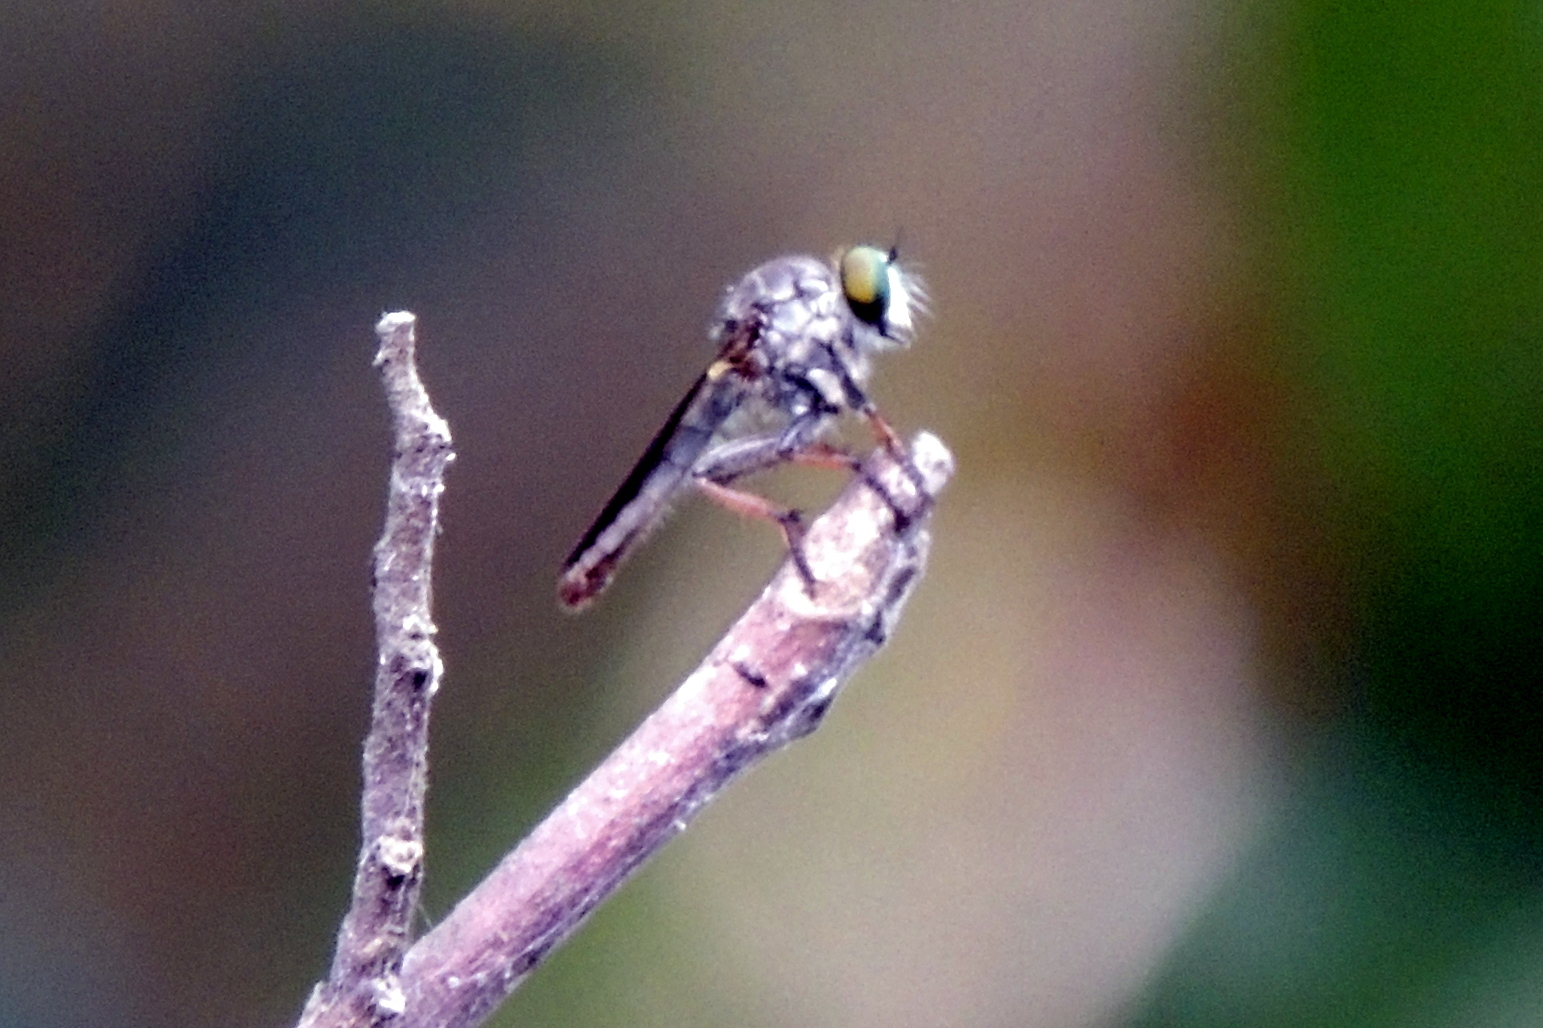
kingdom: Animalia
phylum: Chordata
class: Squamata
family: Colubridae
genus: Ptyas
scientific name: Ptyas mucosa
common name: Oriental ratsnake
